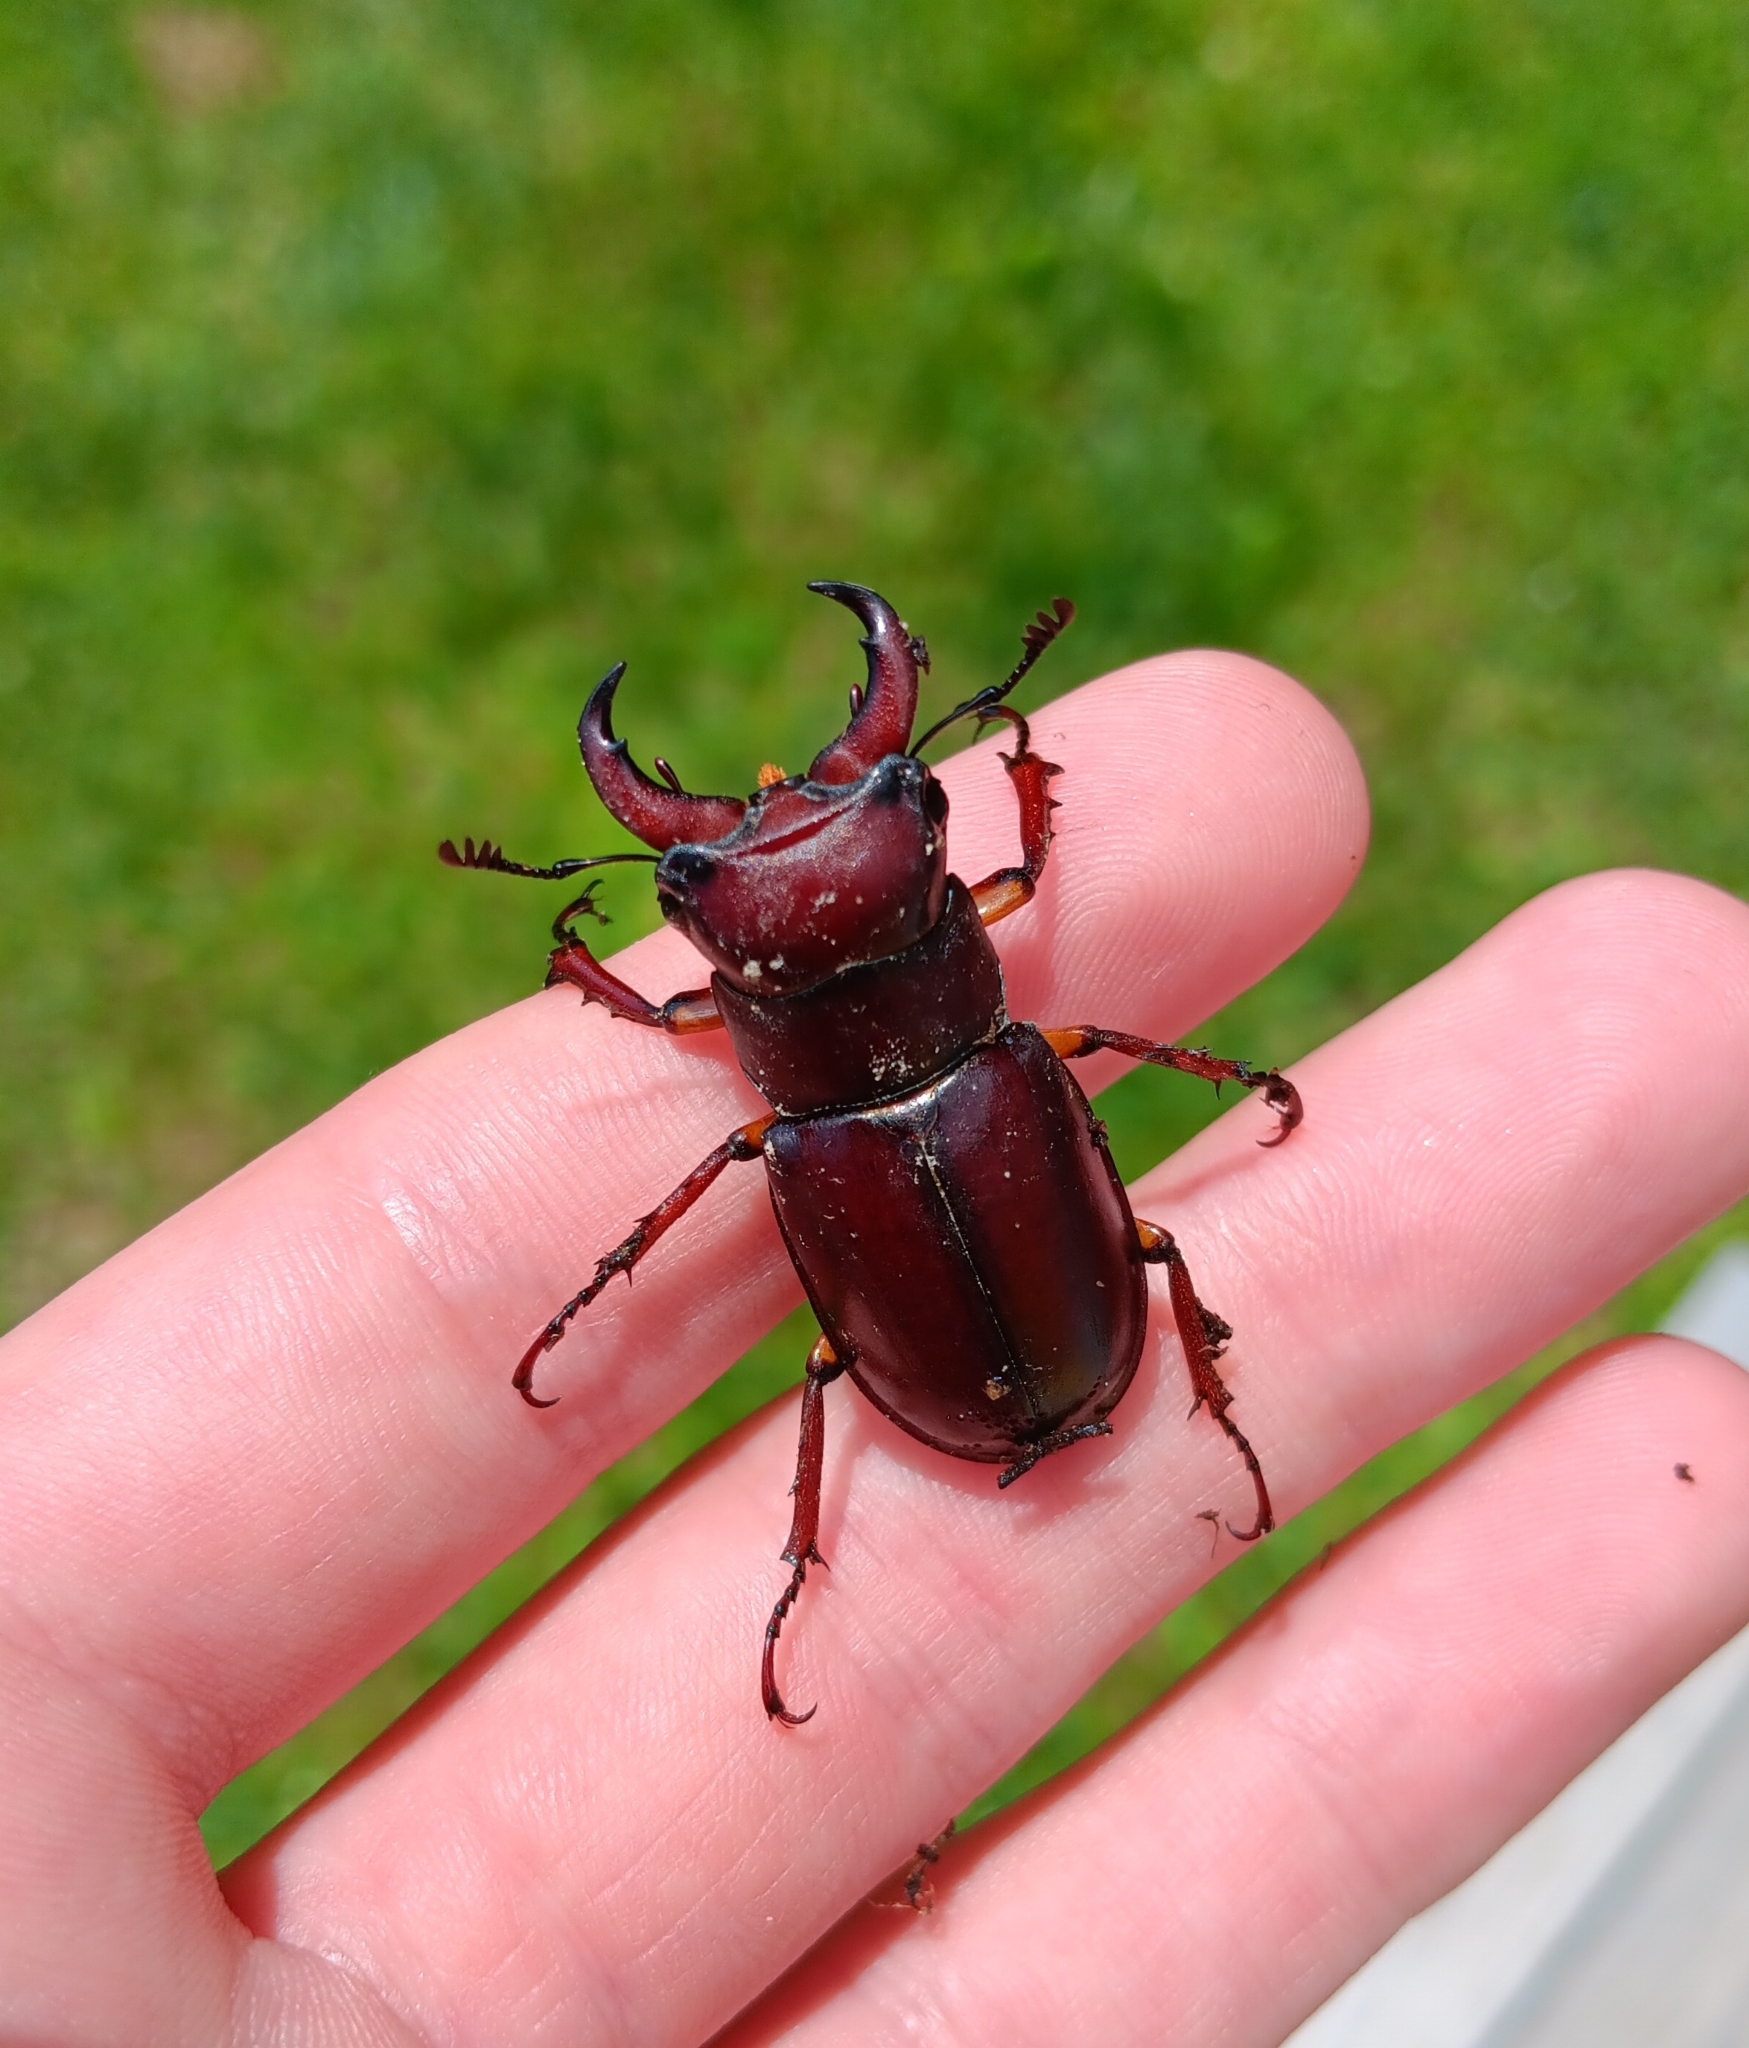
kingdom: Animalia
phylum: Arthropoda
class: Insecta
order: Coleoptera
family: Lucanidae
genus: Lucanus
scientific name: Lucanus capreolus
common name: Stag beetle
